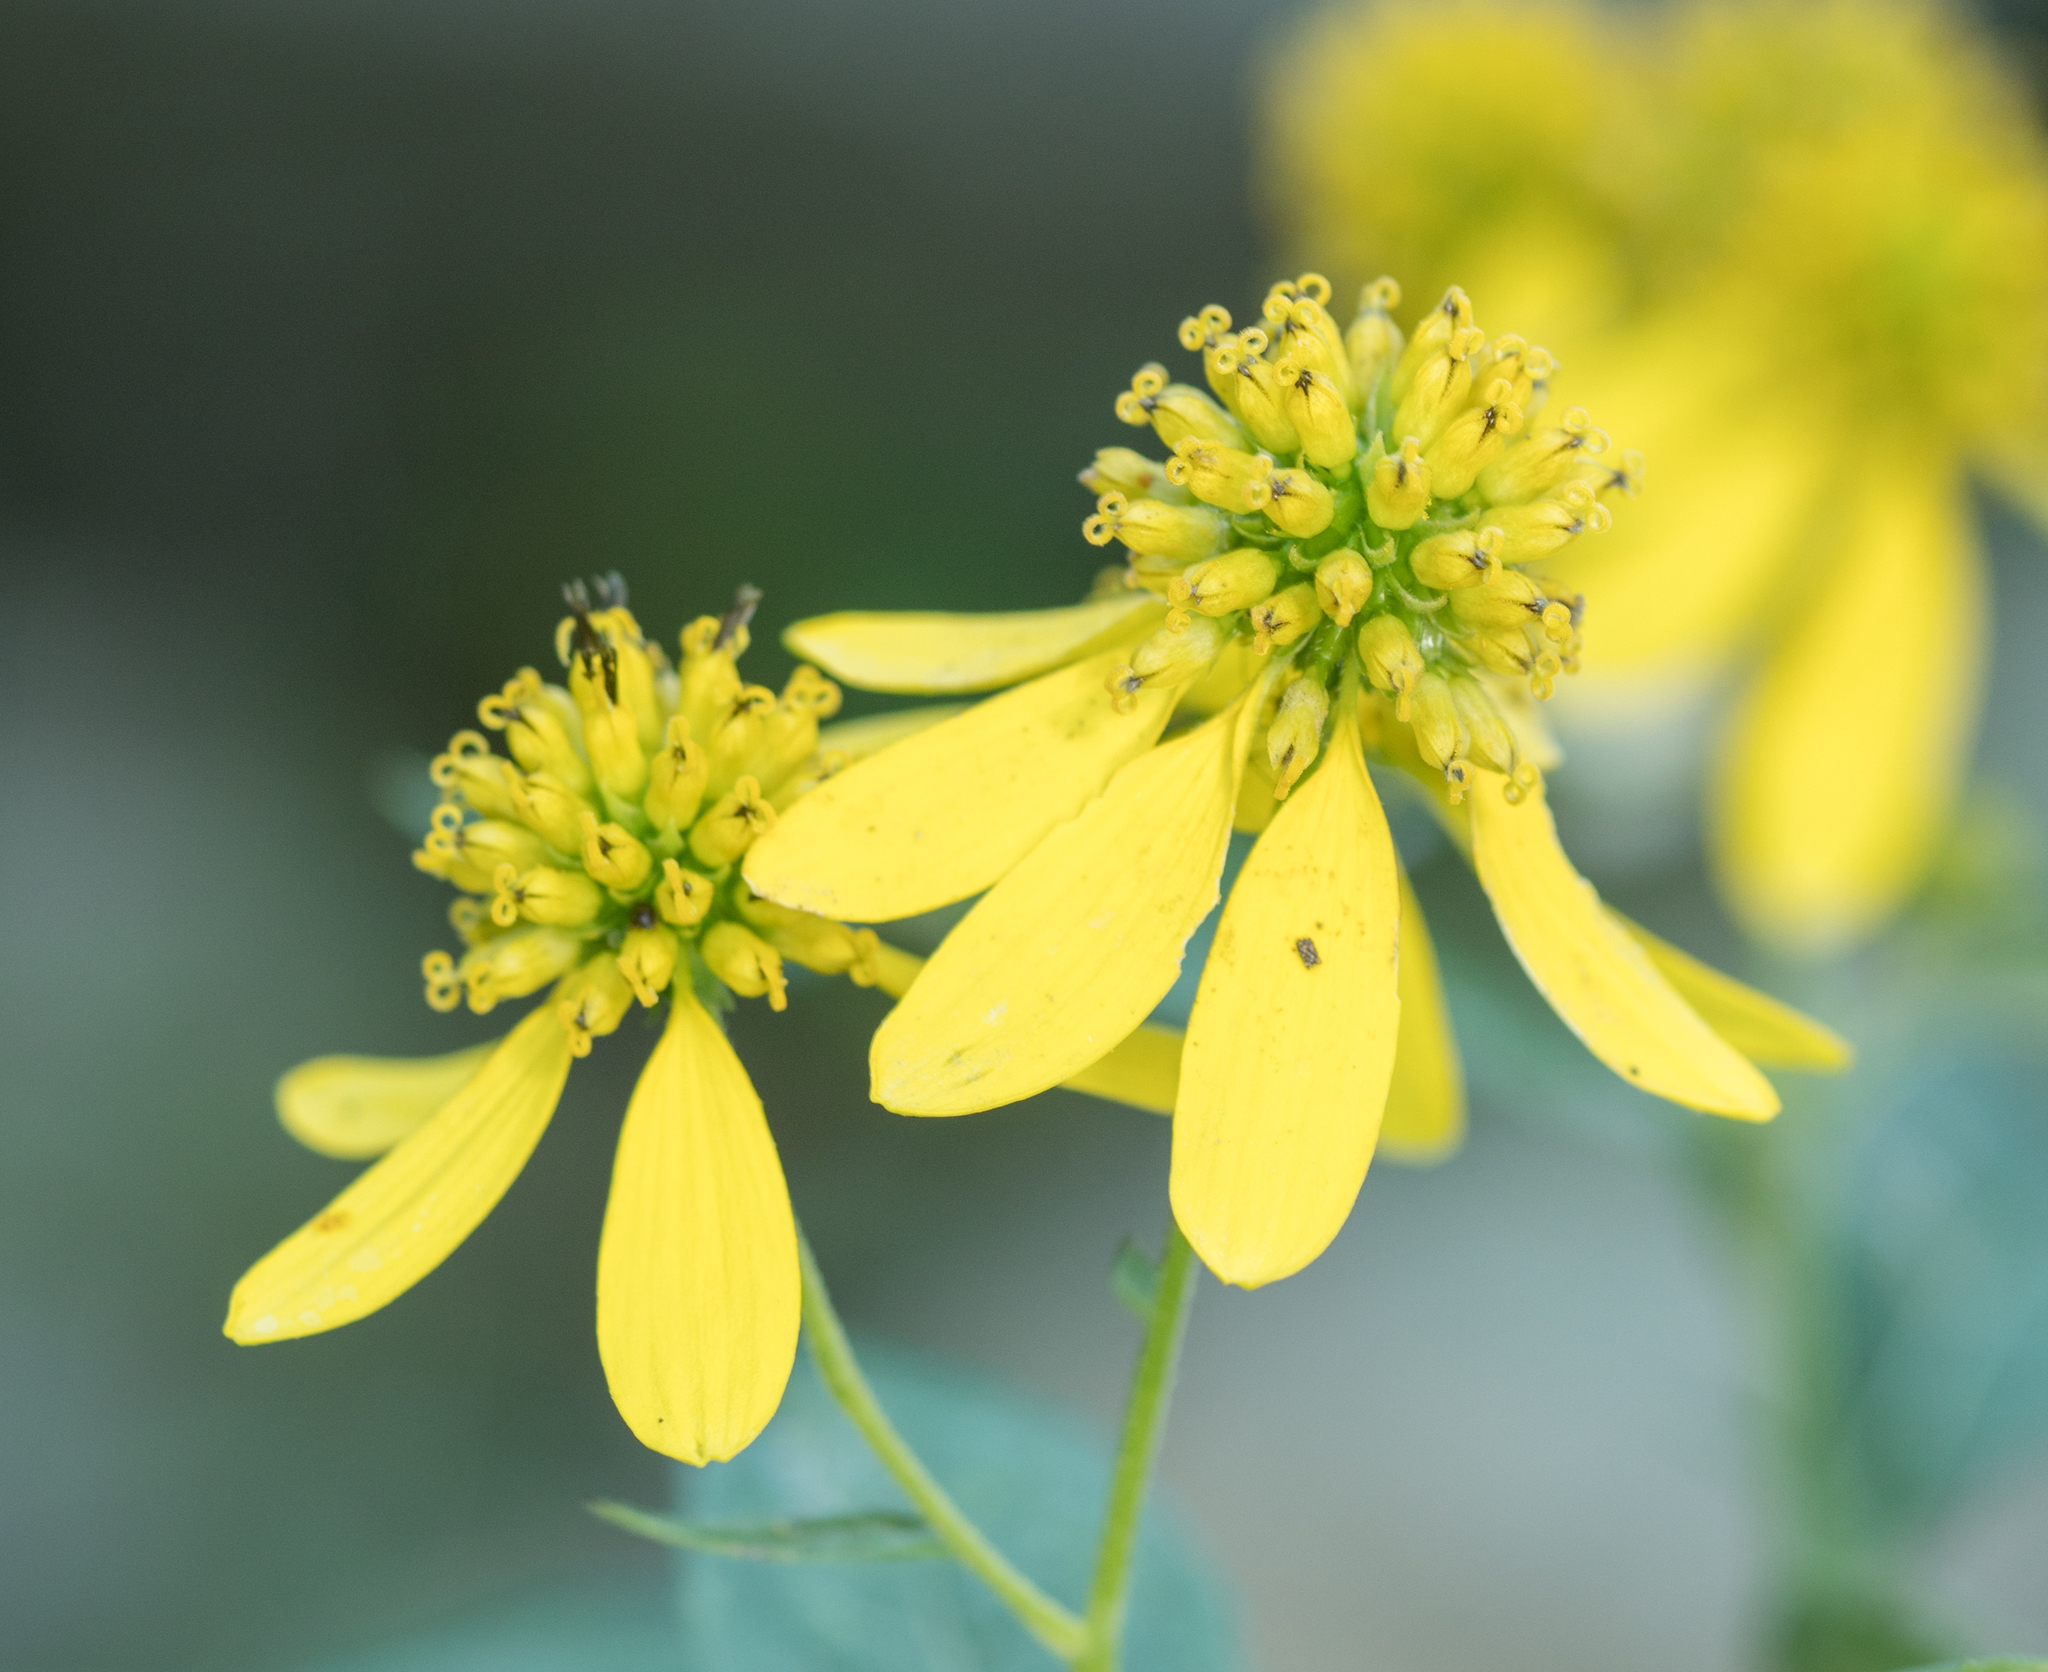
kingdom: Plantae
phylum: Tracheophyta
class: Magnoliopsida
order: Asterales
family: Asteraceae
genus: Verbesina
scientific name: Verbesina alternifolia
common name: Wingstem
